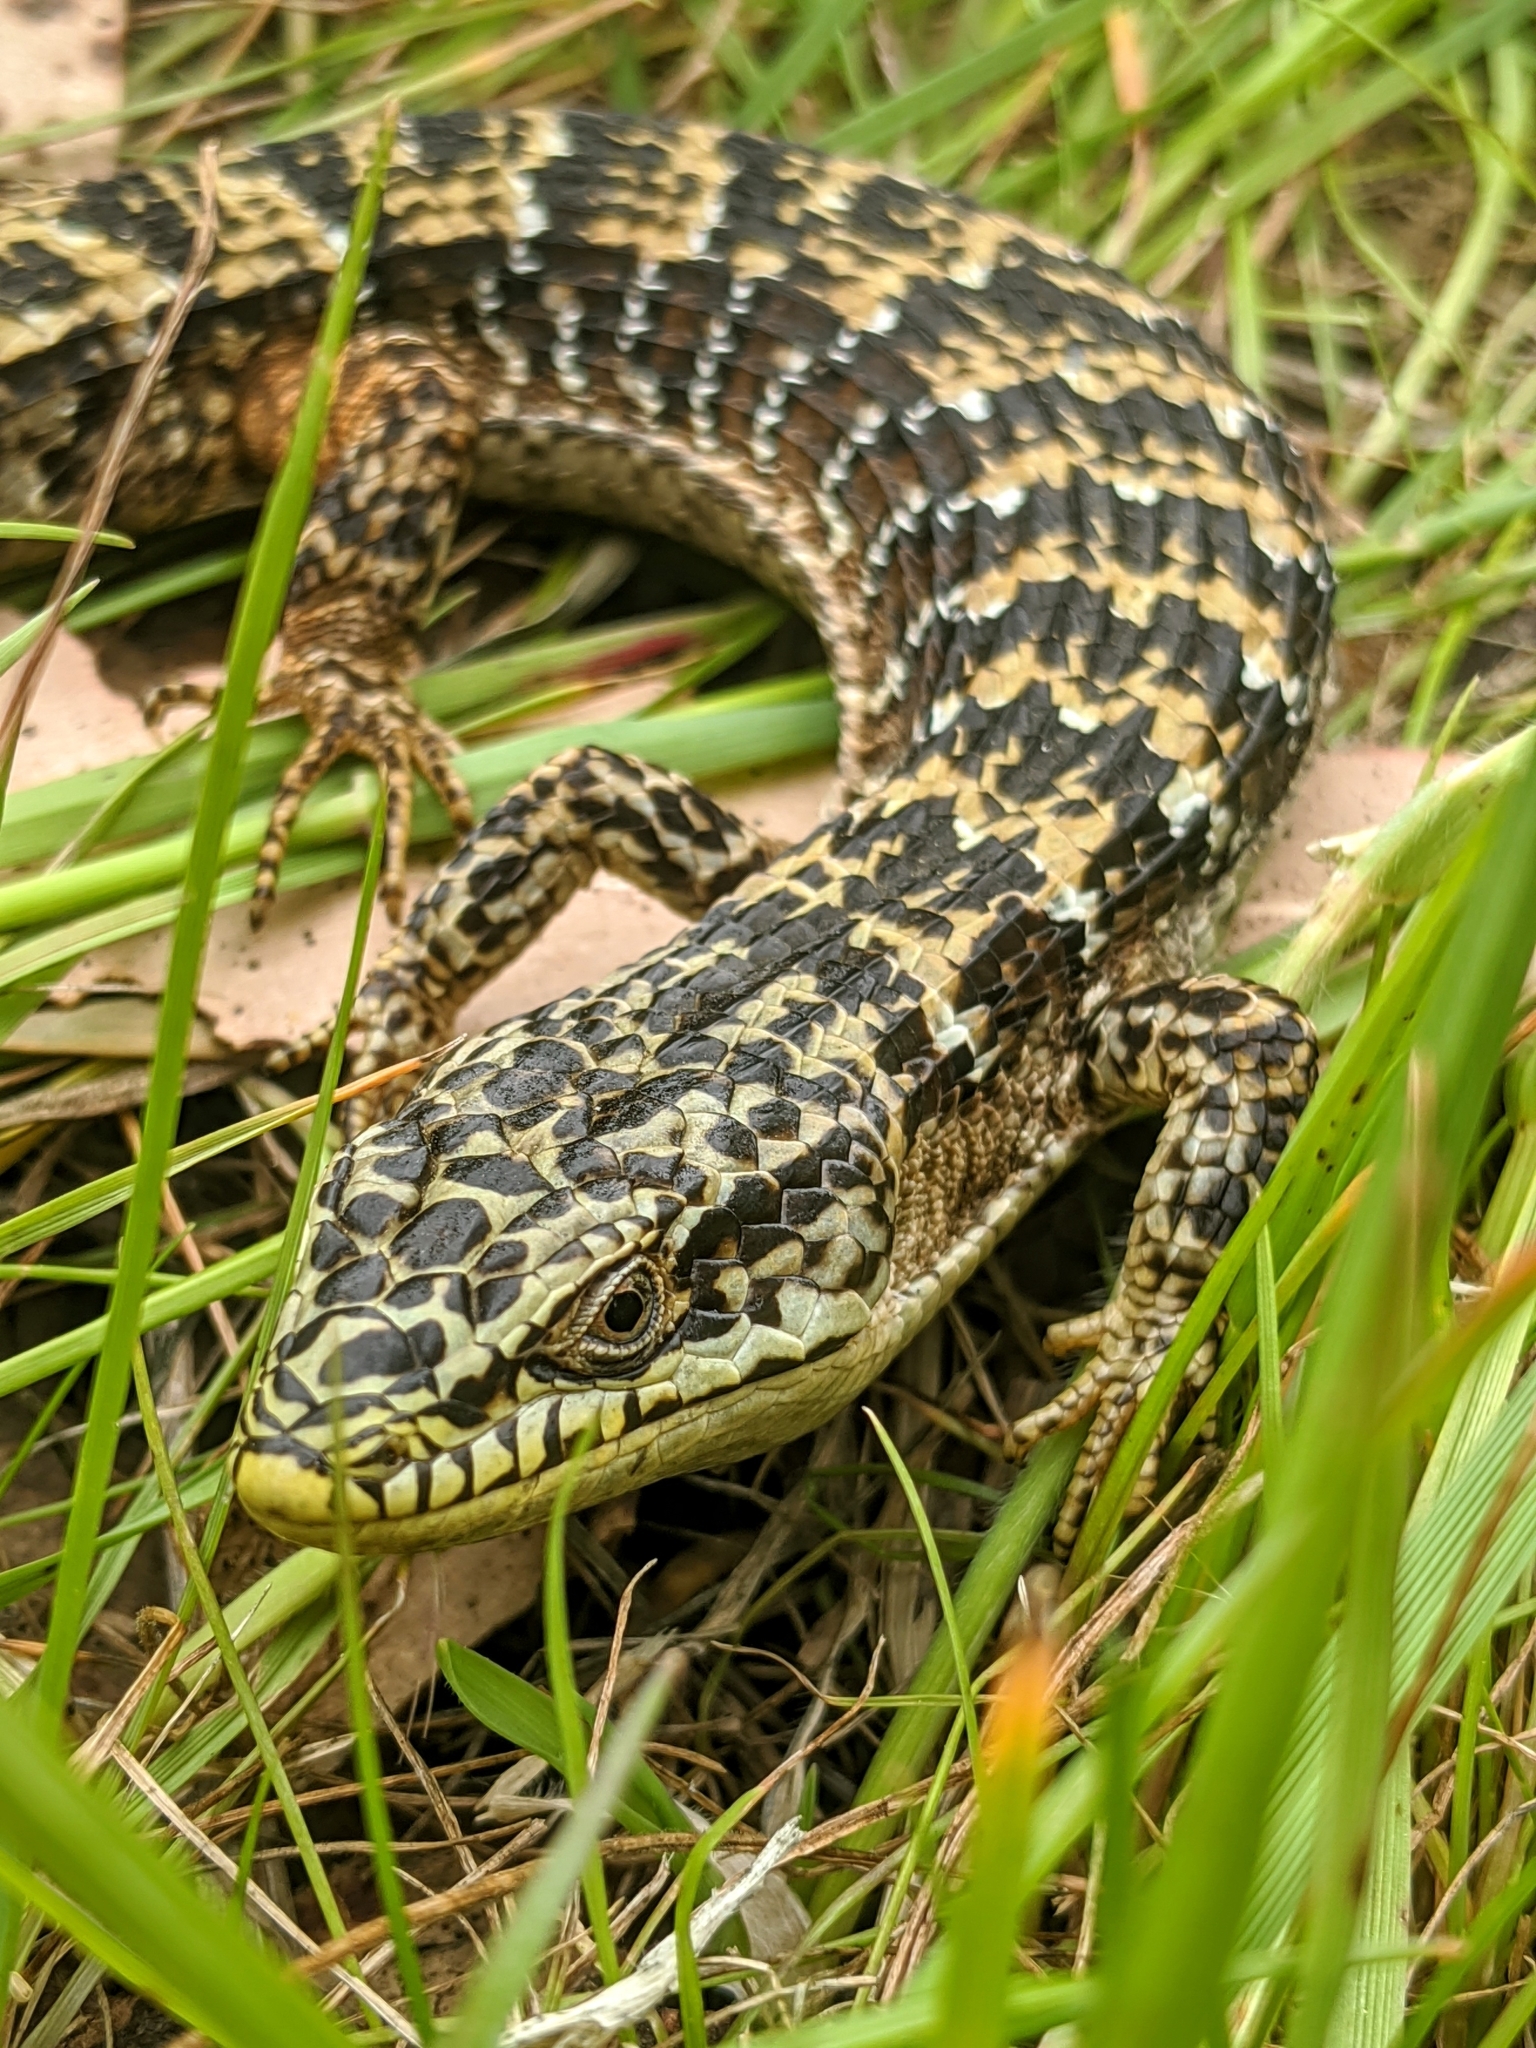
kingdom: Animalia
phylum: Chordata
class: Squamata
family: Anguidae
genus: Elgaria
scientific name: Elgaria multicarinata
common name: Southern alligator lizard
